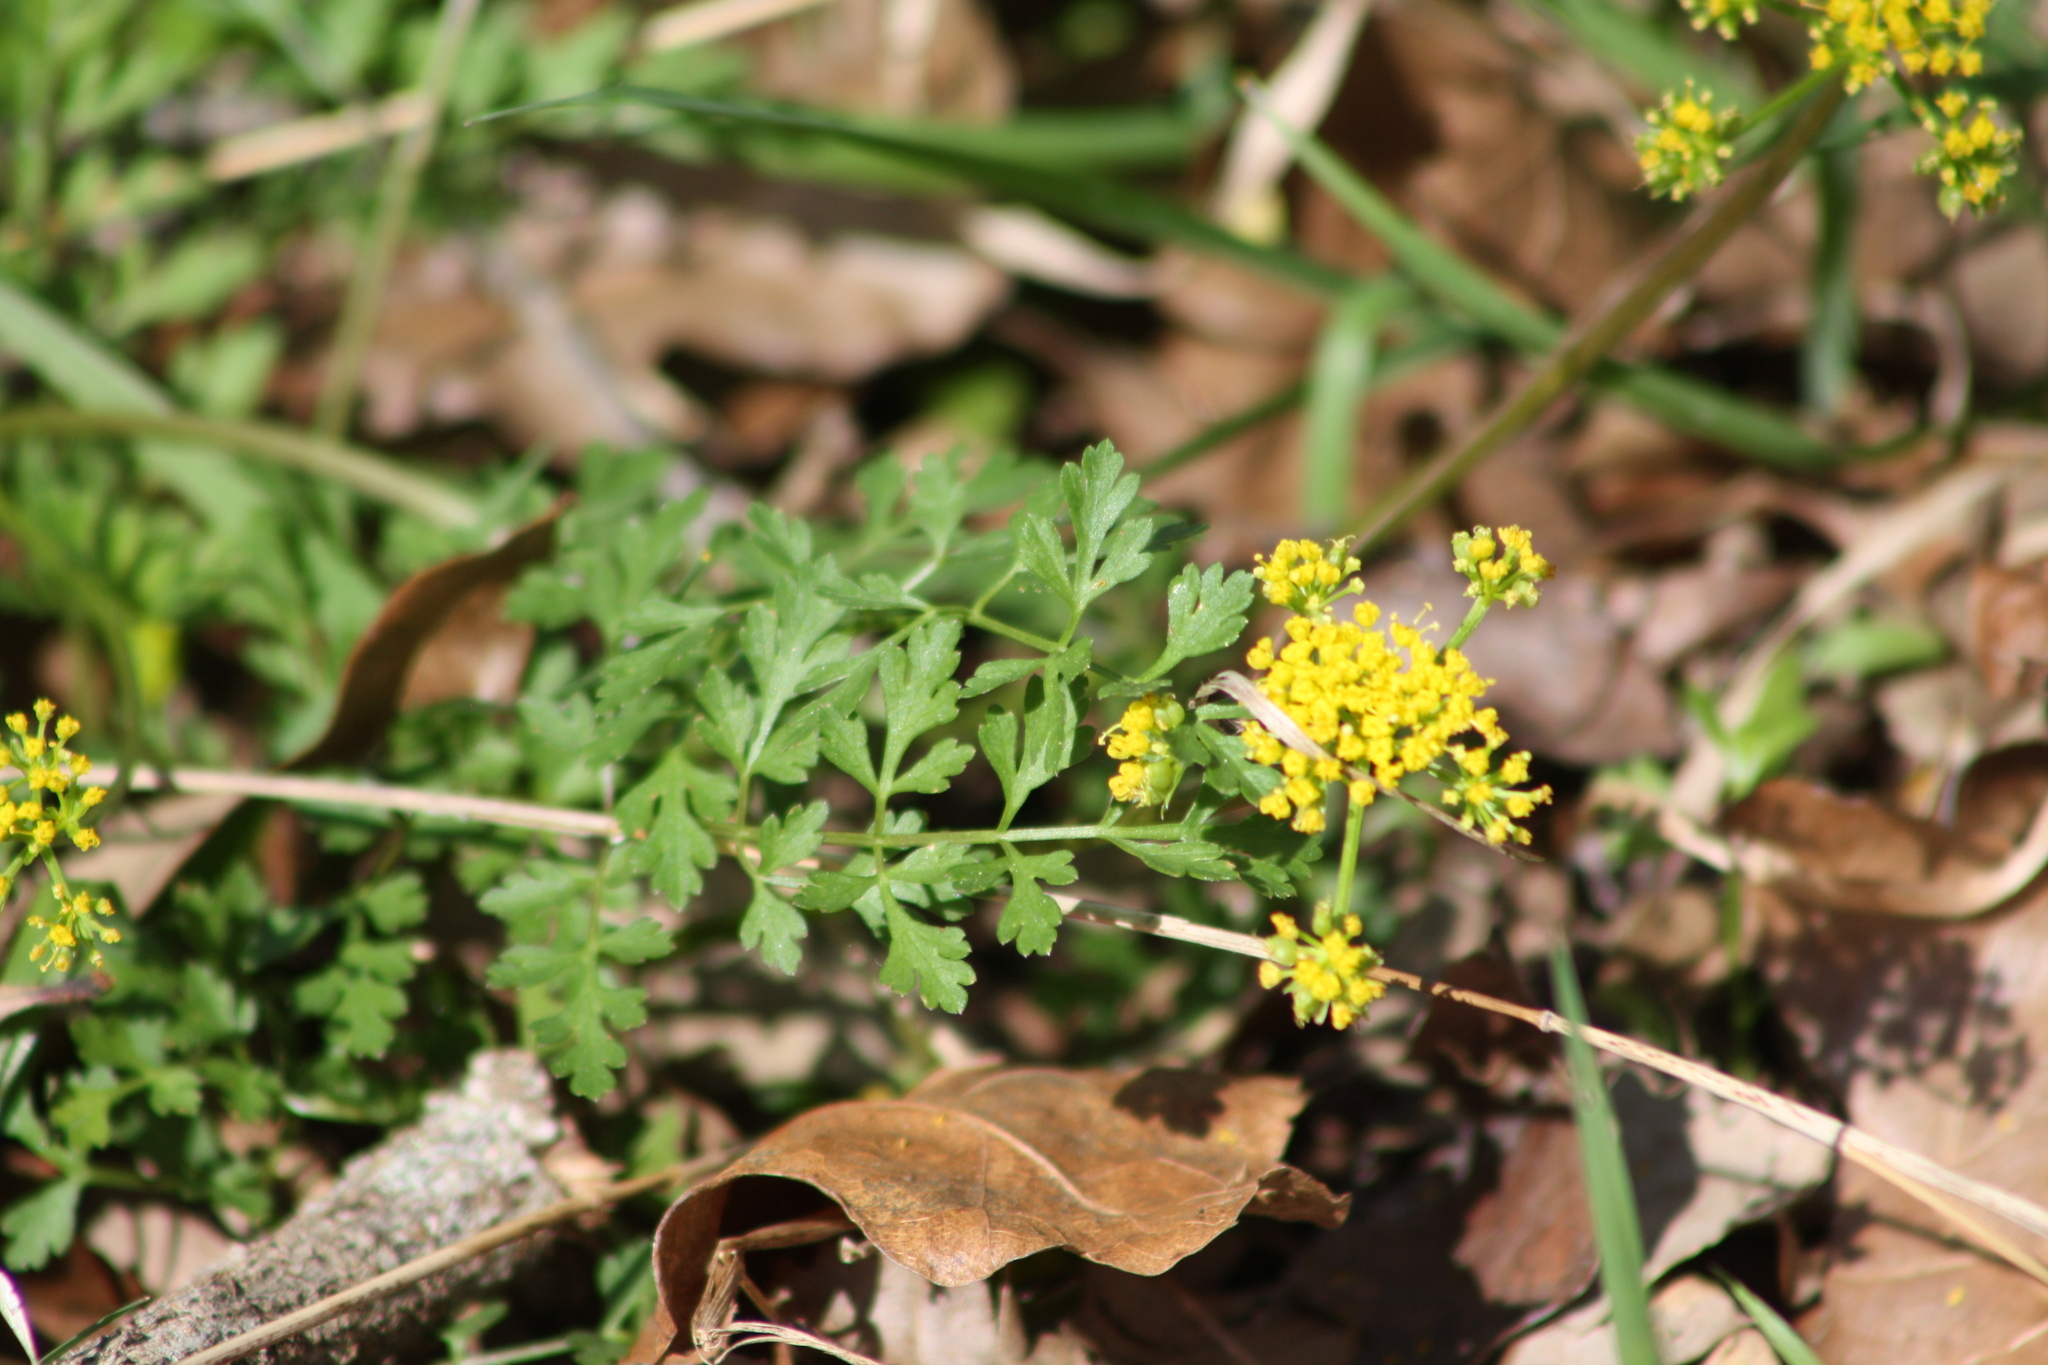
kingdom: Plantae
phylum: Tracheophyta
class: Magnoliopsida
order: Apiales
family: Apiaceae
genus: Tauschia
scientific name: Tauschia texana
